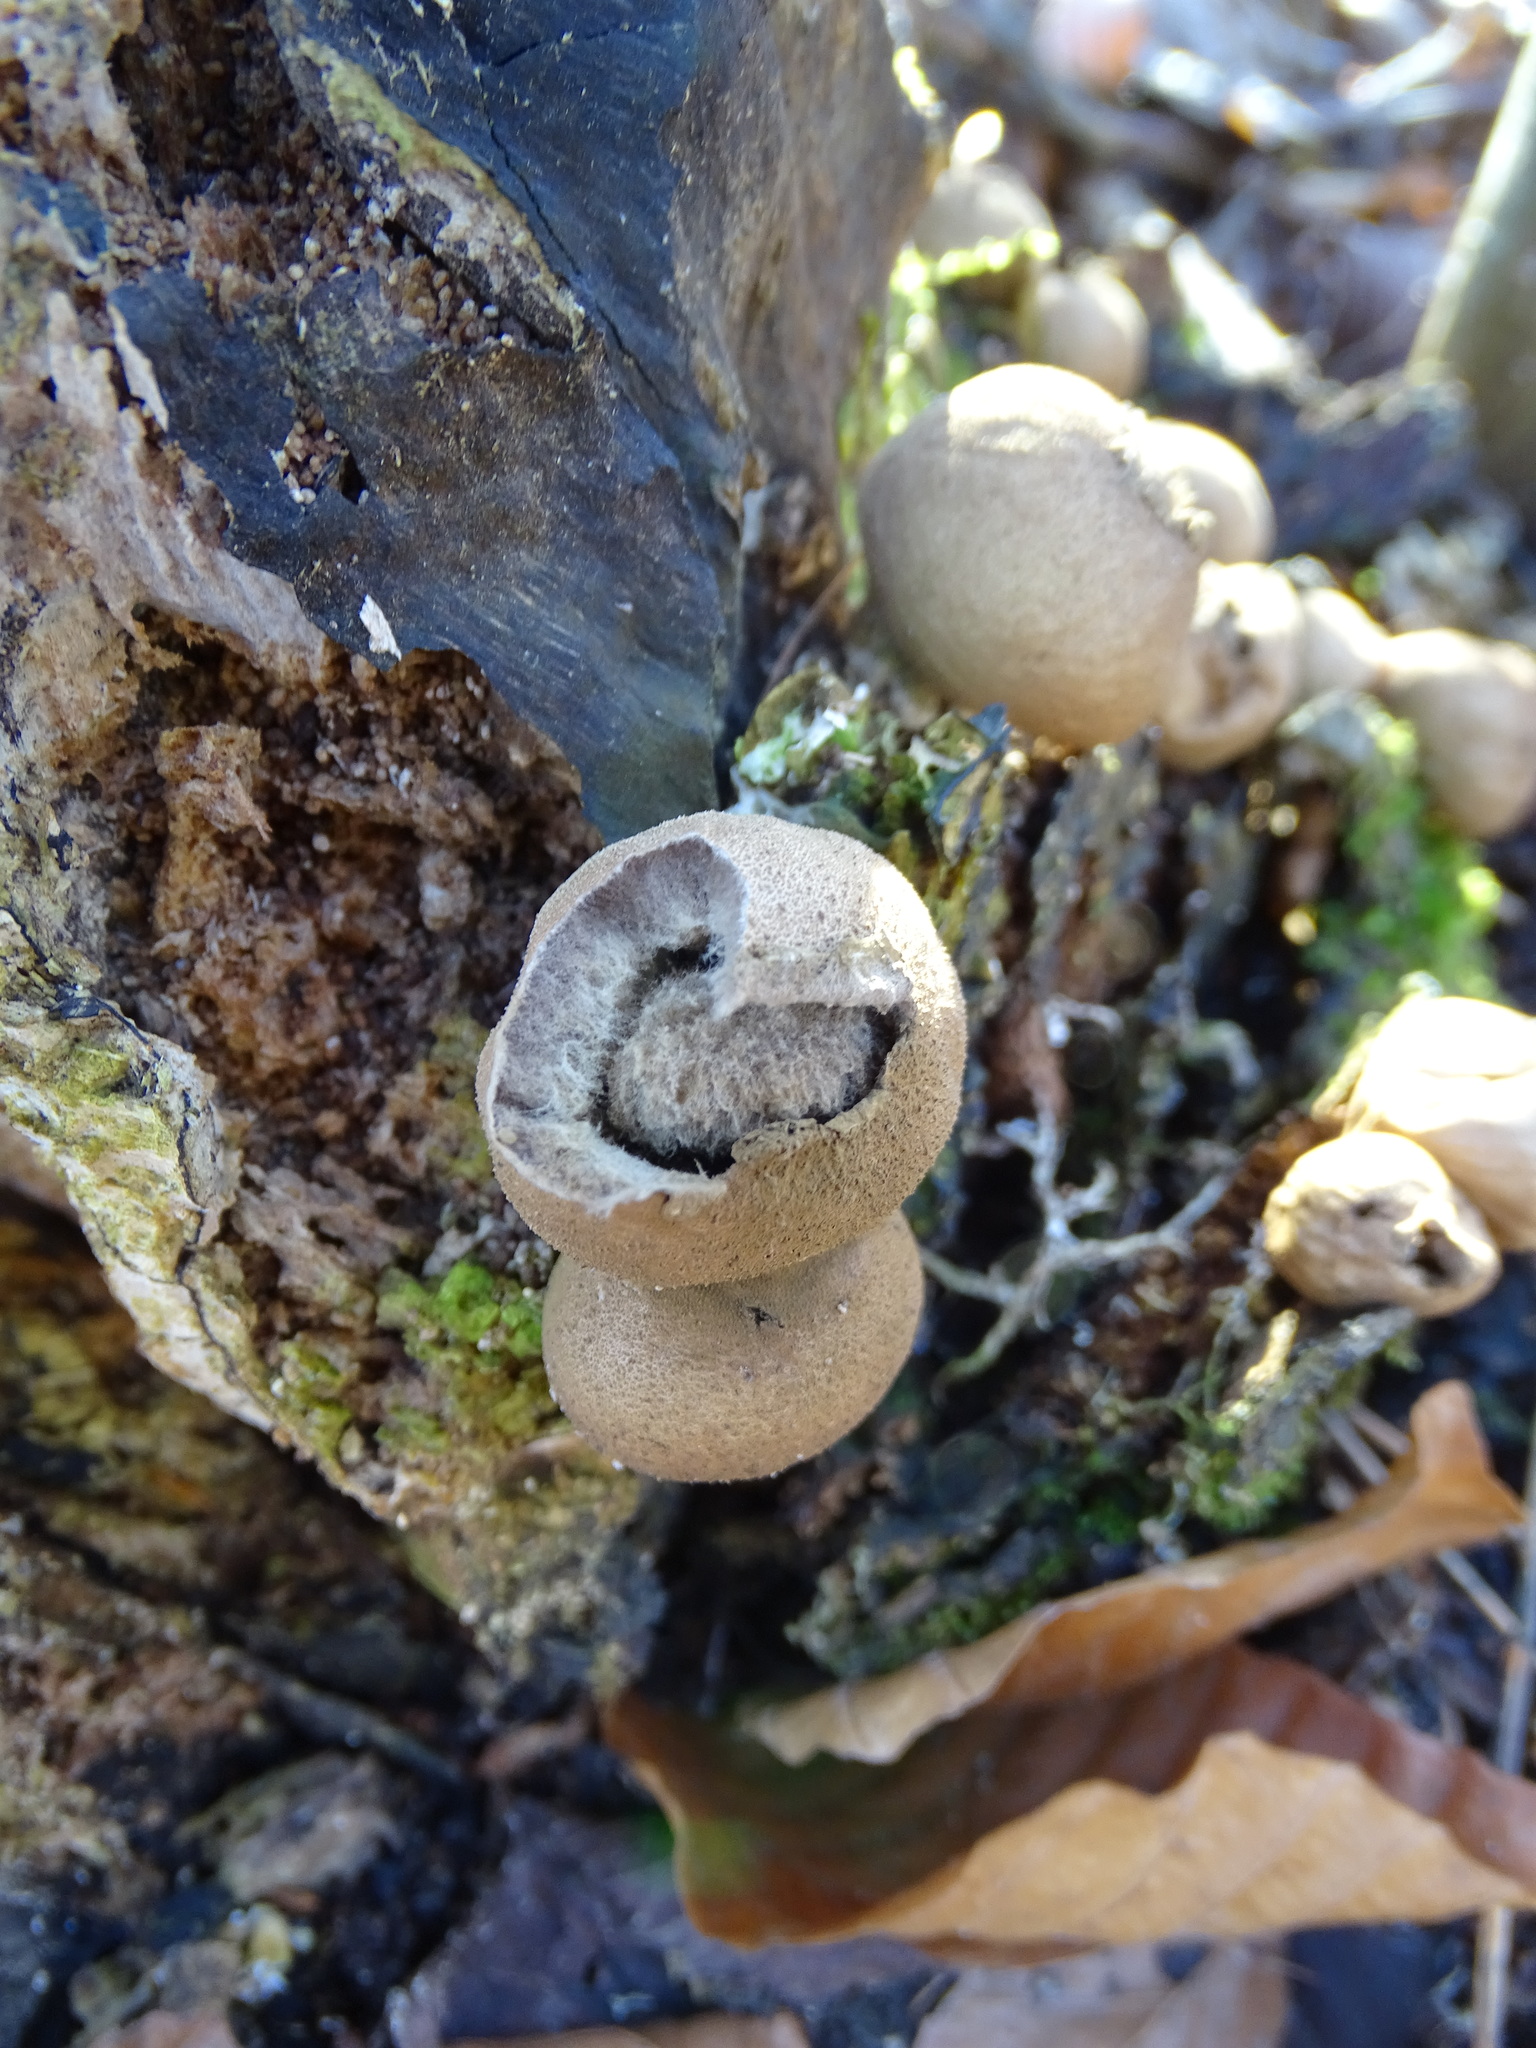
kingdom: Fungi
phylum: Basidiomycota
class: Agaricomycetes
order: Agaricales
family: Lycoperdaceae
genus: Apioperdon
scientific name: Apioperdon pyriforme
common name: Pear-shaped puffball
